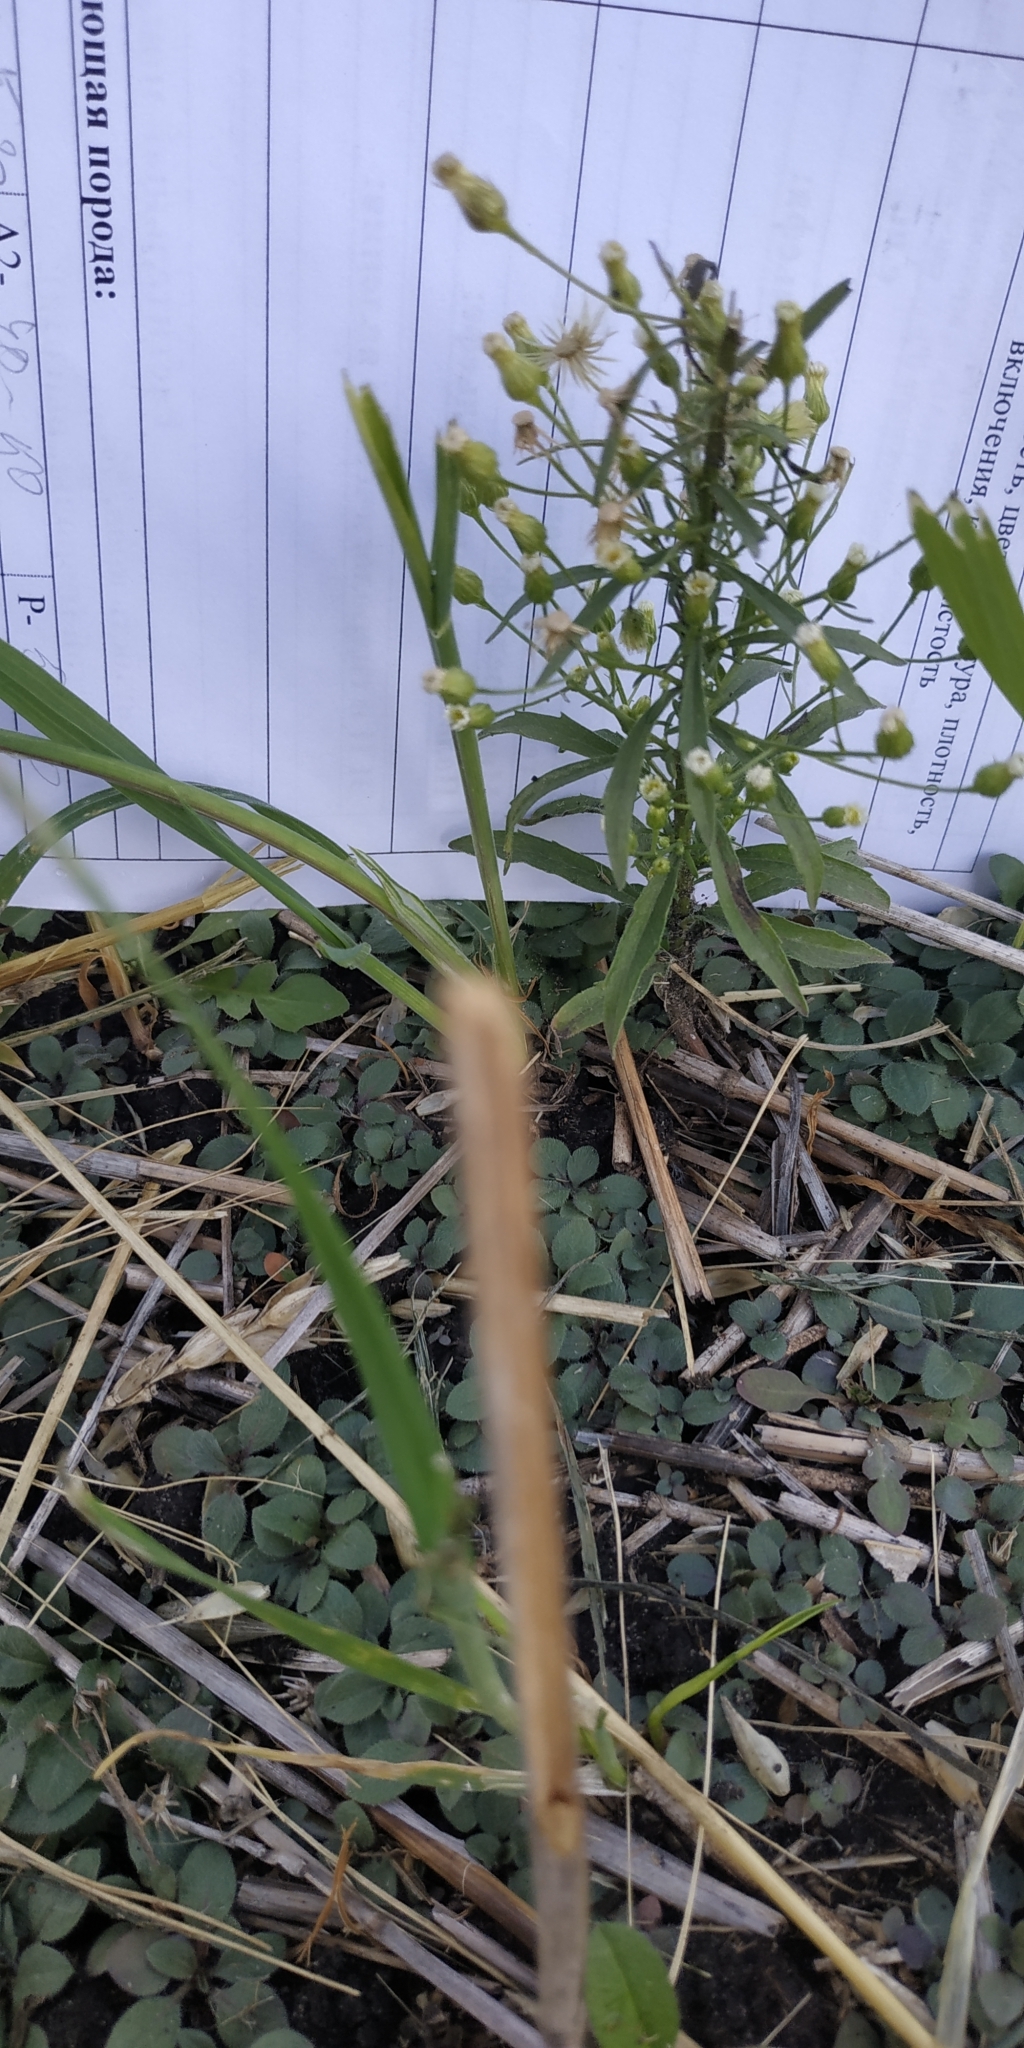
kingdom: Plantae
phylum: Tracheophyta
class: Magnoliopsida
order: Asterales
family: Asteraceae
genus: Erigeron
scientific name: Erigeron canadensis
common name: Canadian fleabane
